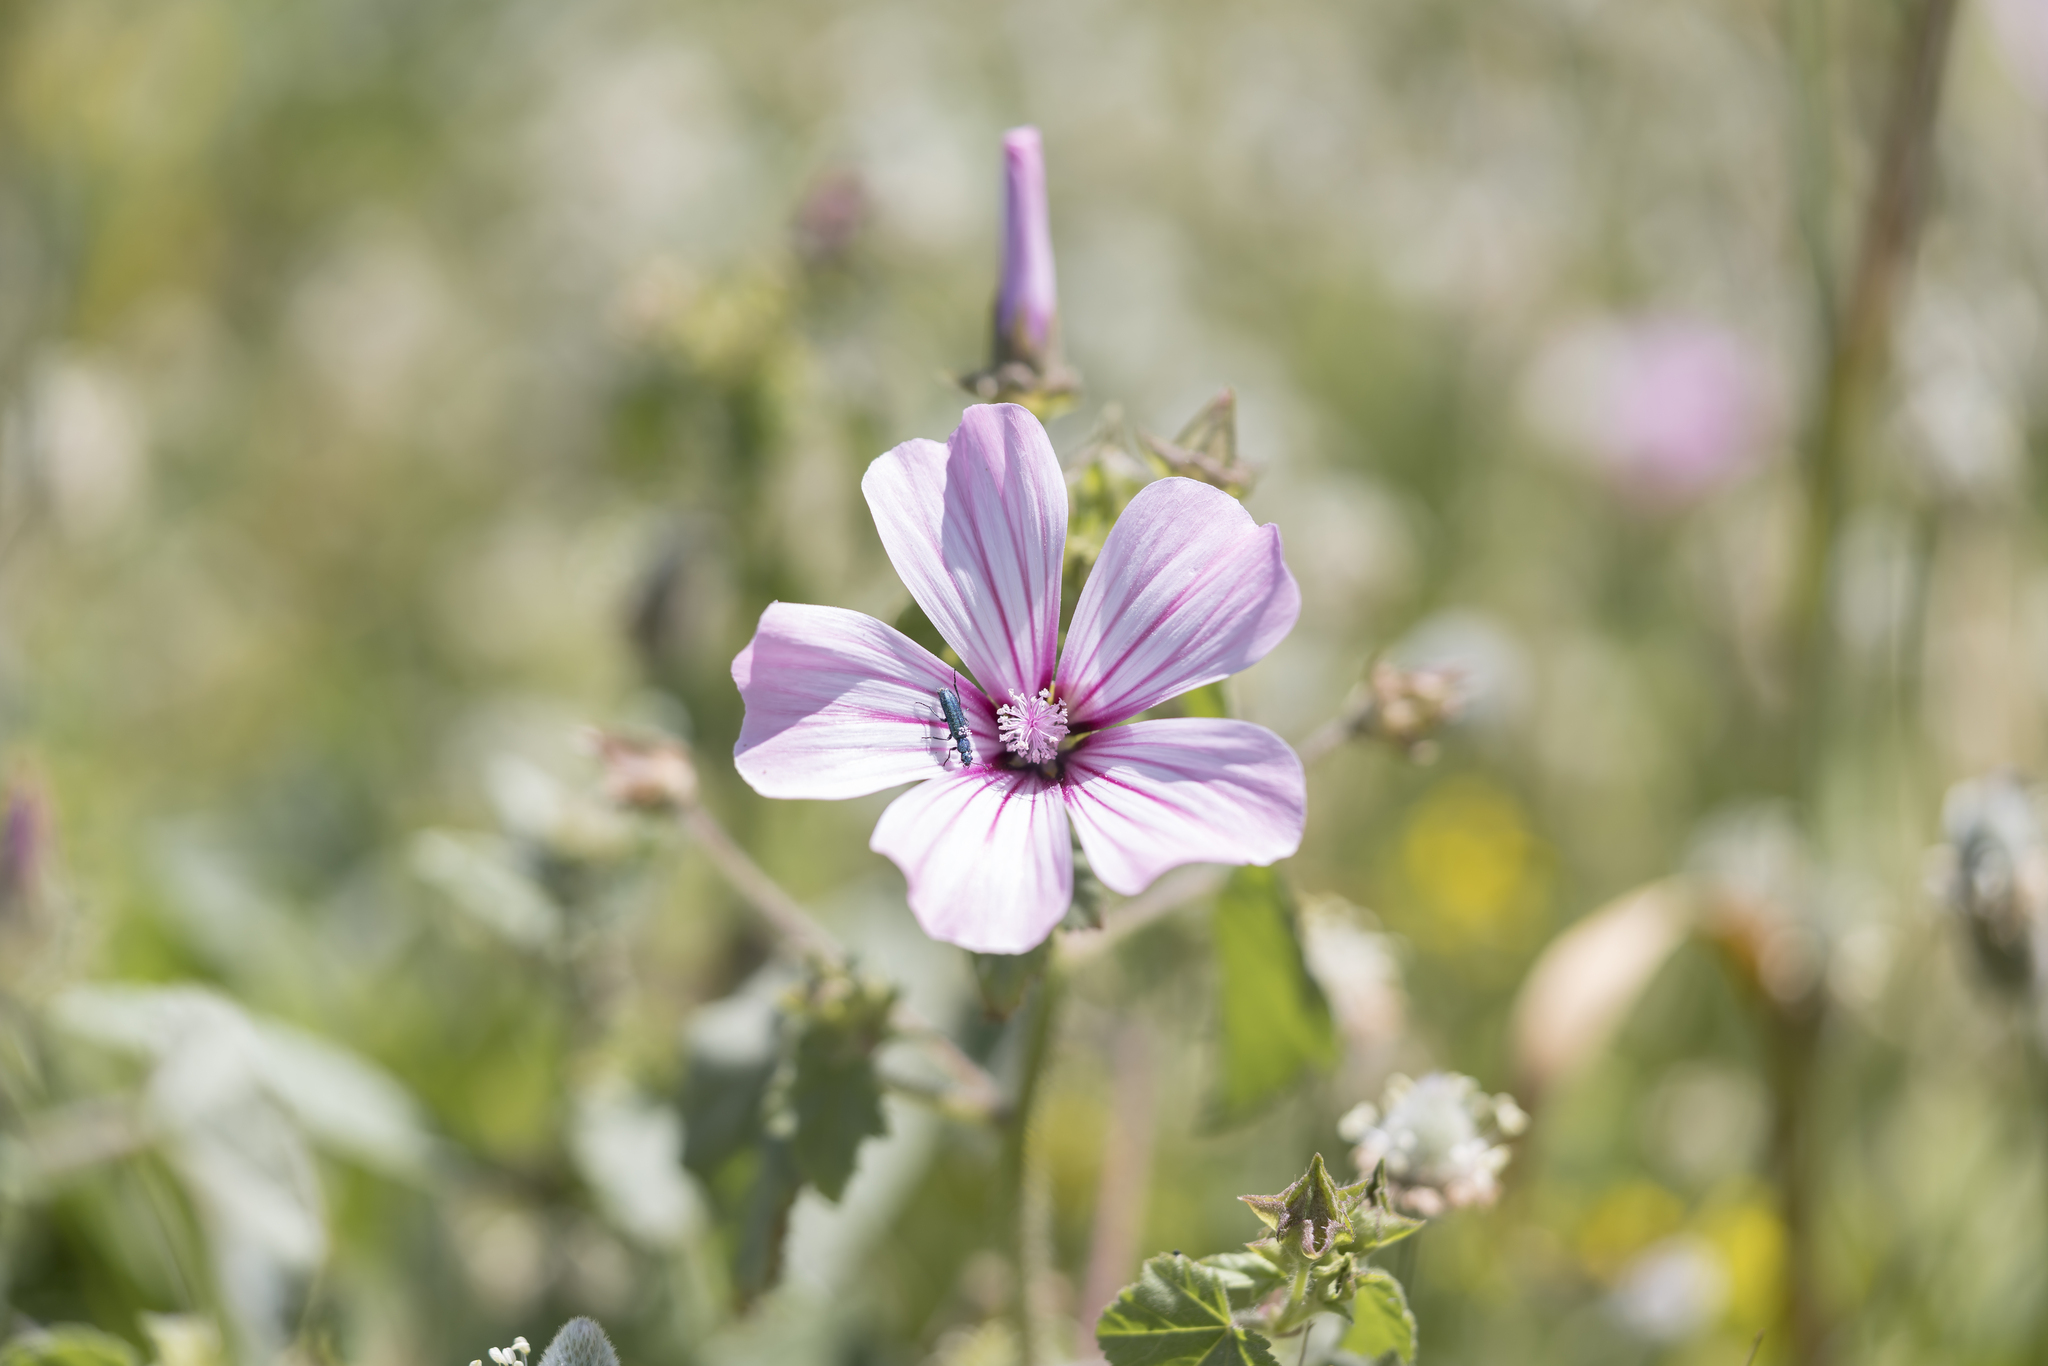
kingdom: Plantae
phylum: Tracheophyta
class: Magnoliopsida
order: Malvales
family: Malvaceae
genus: Malva
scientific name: Malva trimestris
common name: Royal mallow
